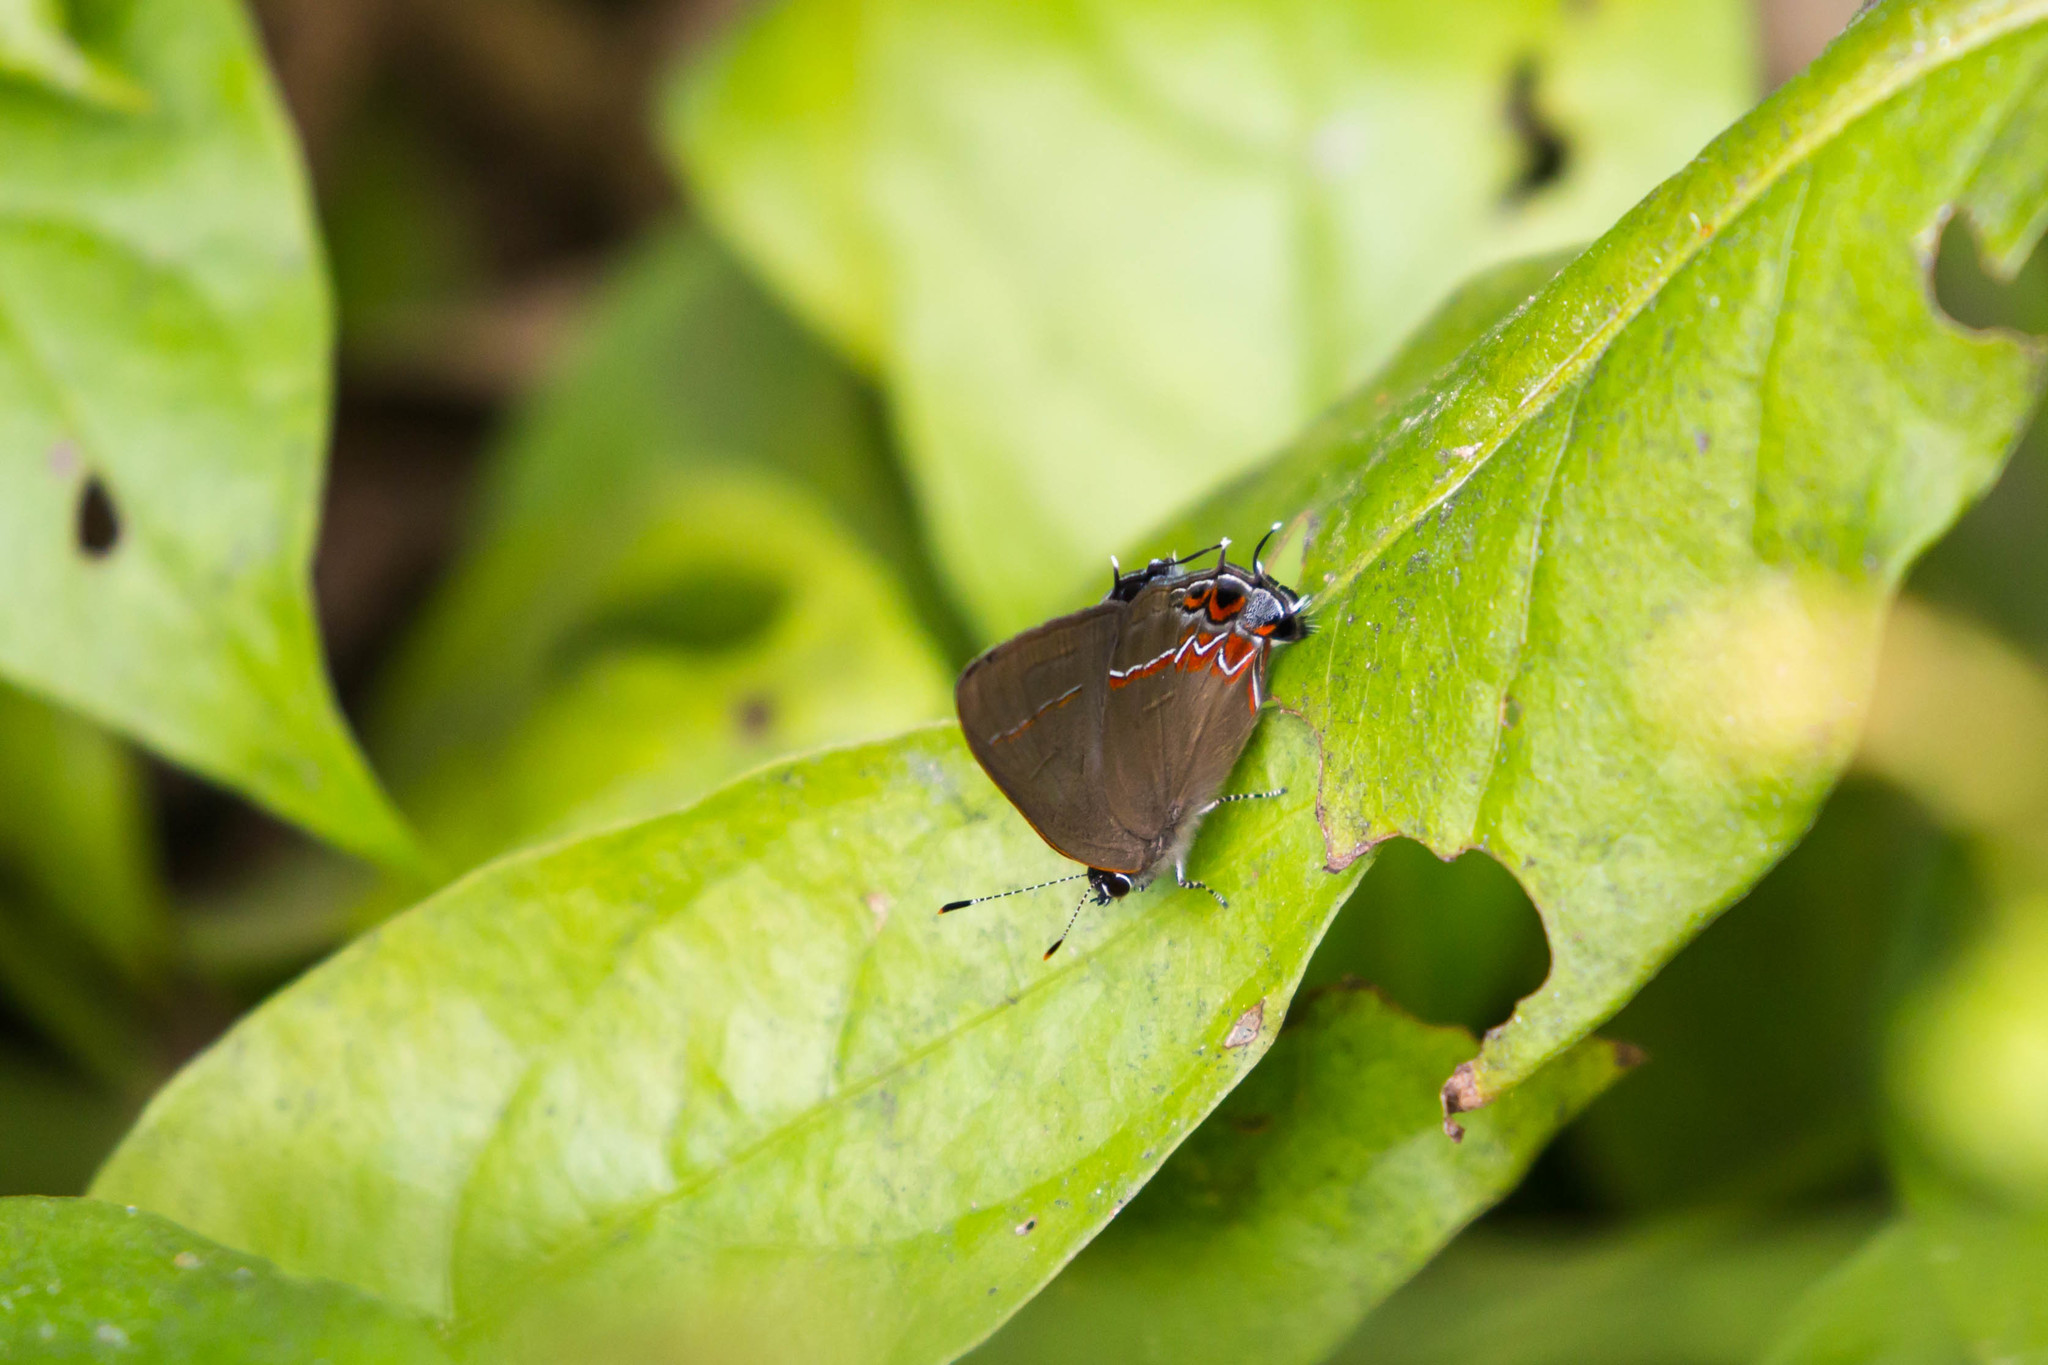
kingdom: Animalia
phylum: Arthropoda
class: Insecta
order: Lepidoptera
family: Lycaenidae
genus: Calycopis
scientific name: Calycopis isobeon
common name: Dusky-blue groundstreak
